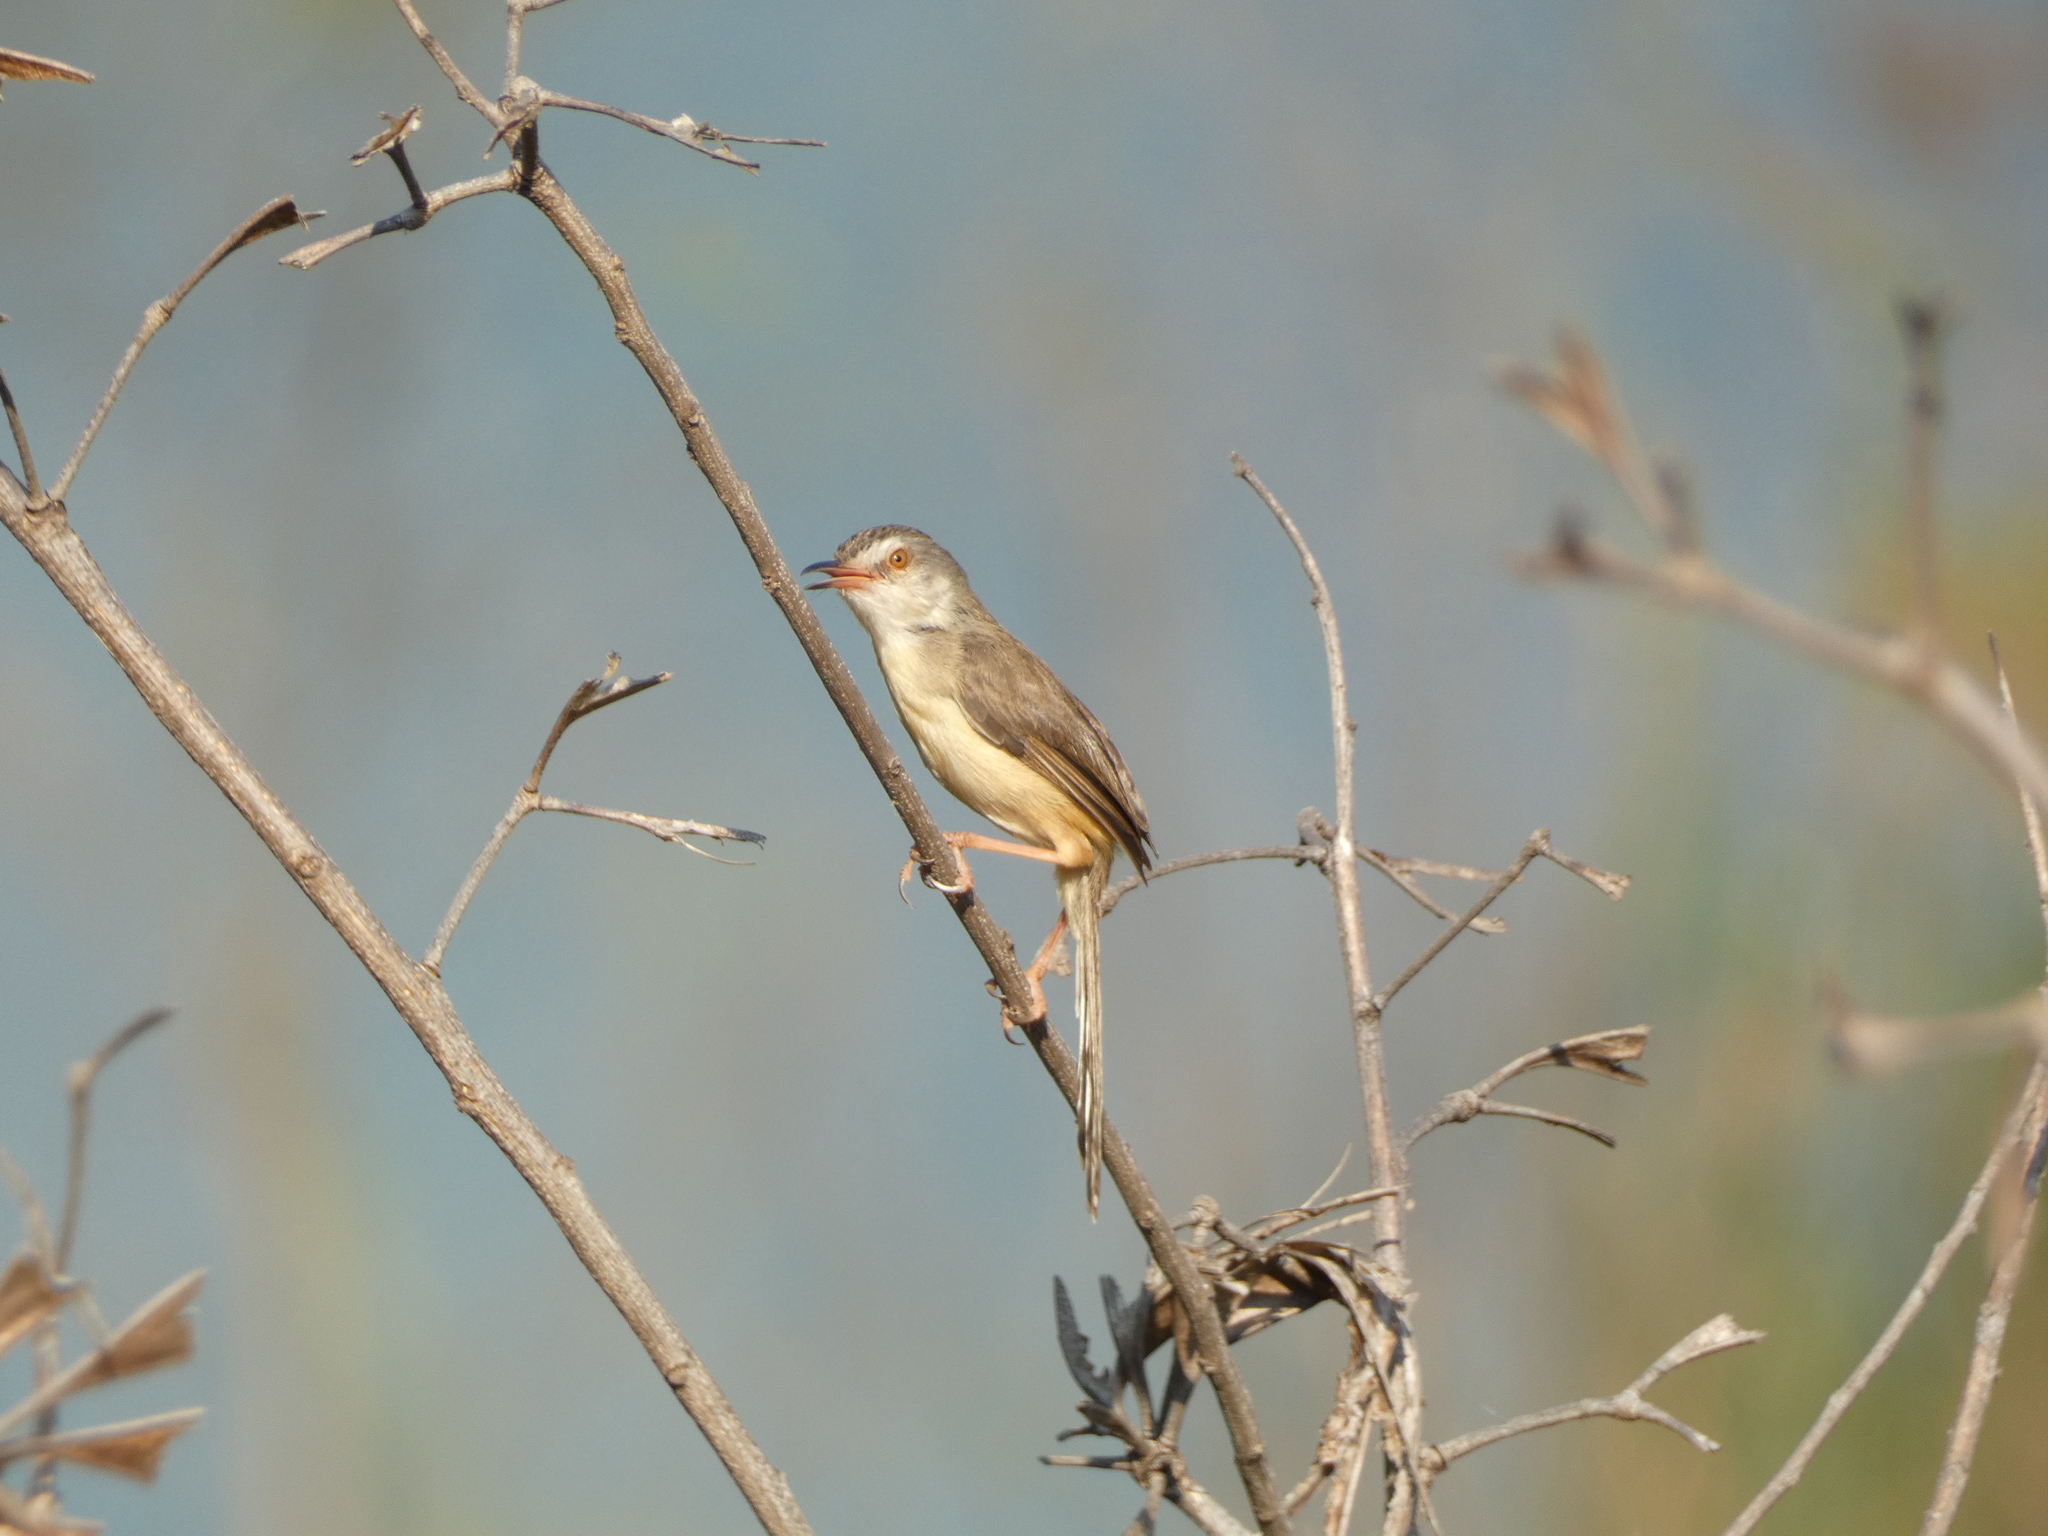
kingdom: Animalia
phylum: Chordata
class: Aves
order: Passeriformes
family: Cisticolidae
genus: Prinia
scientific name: Prinia inornata
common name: Plain prinia
